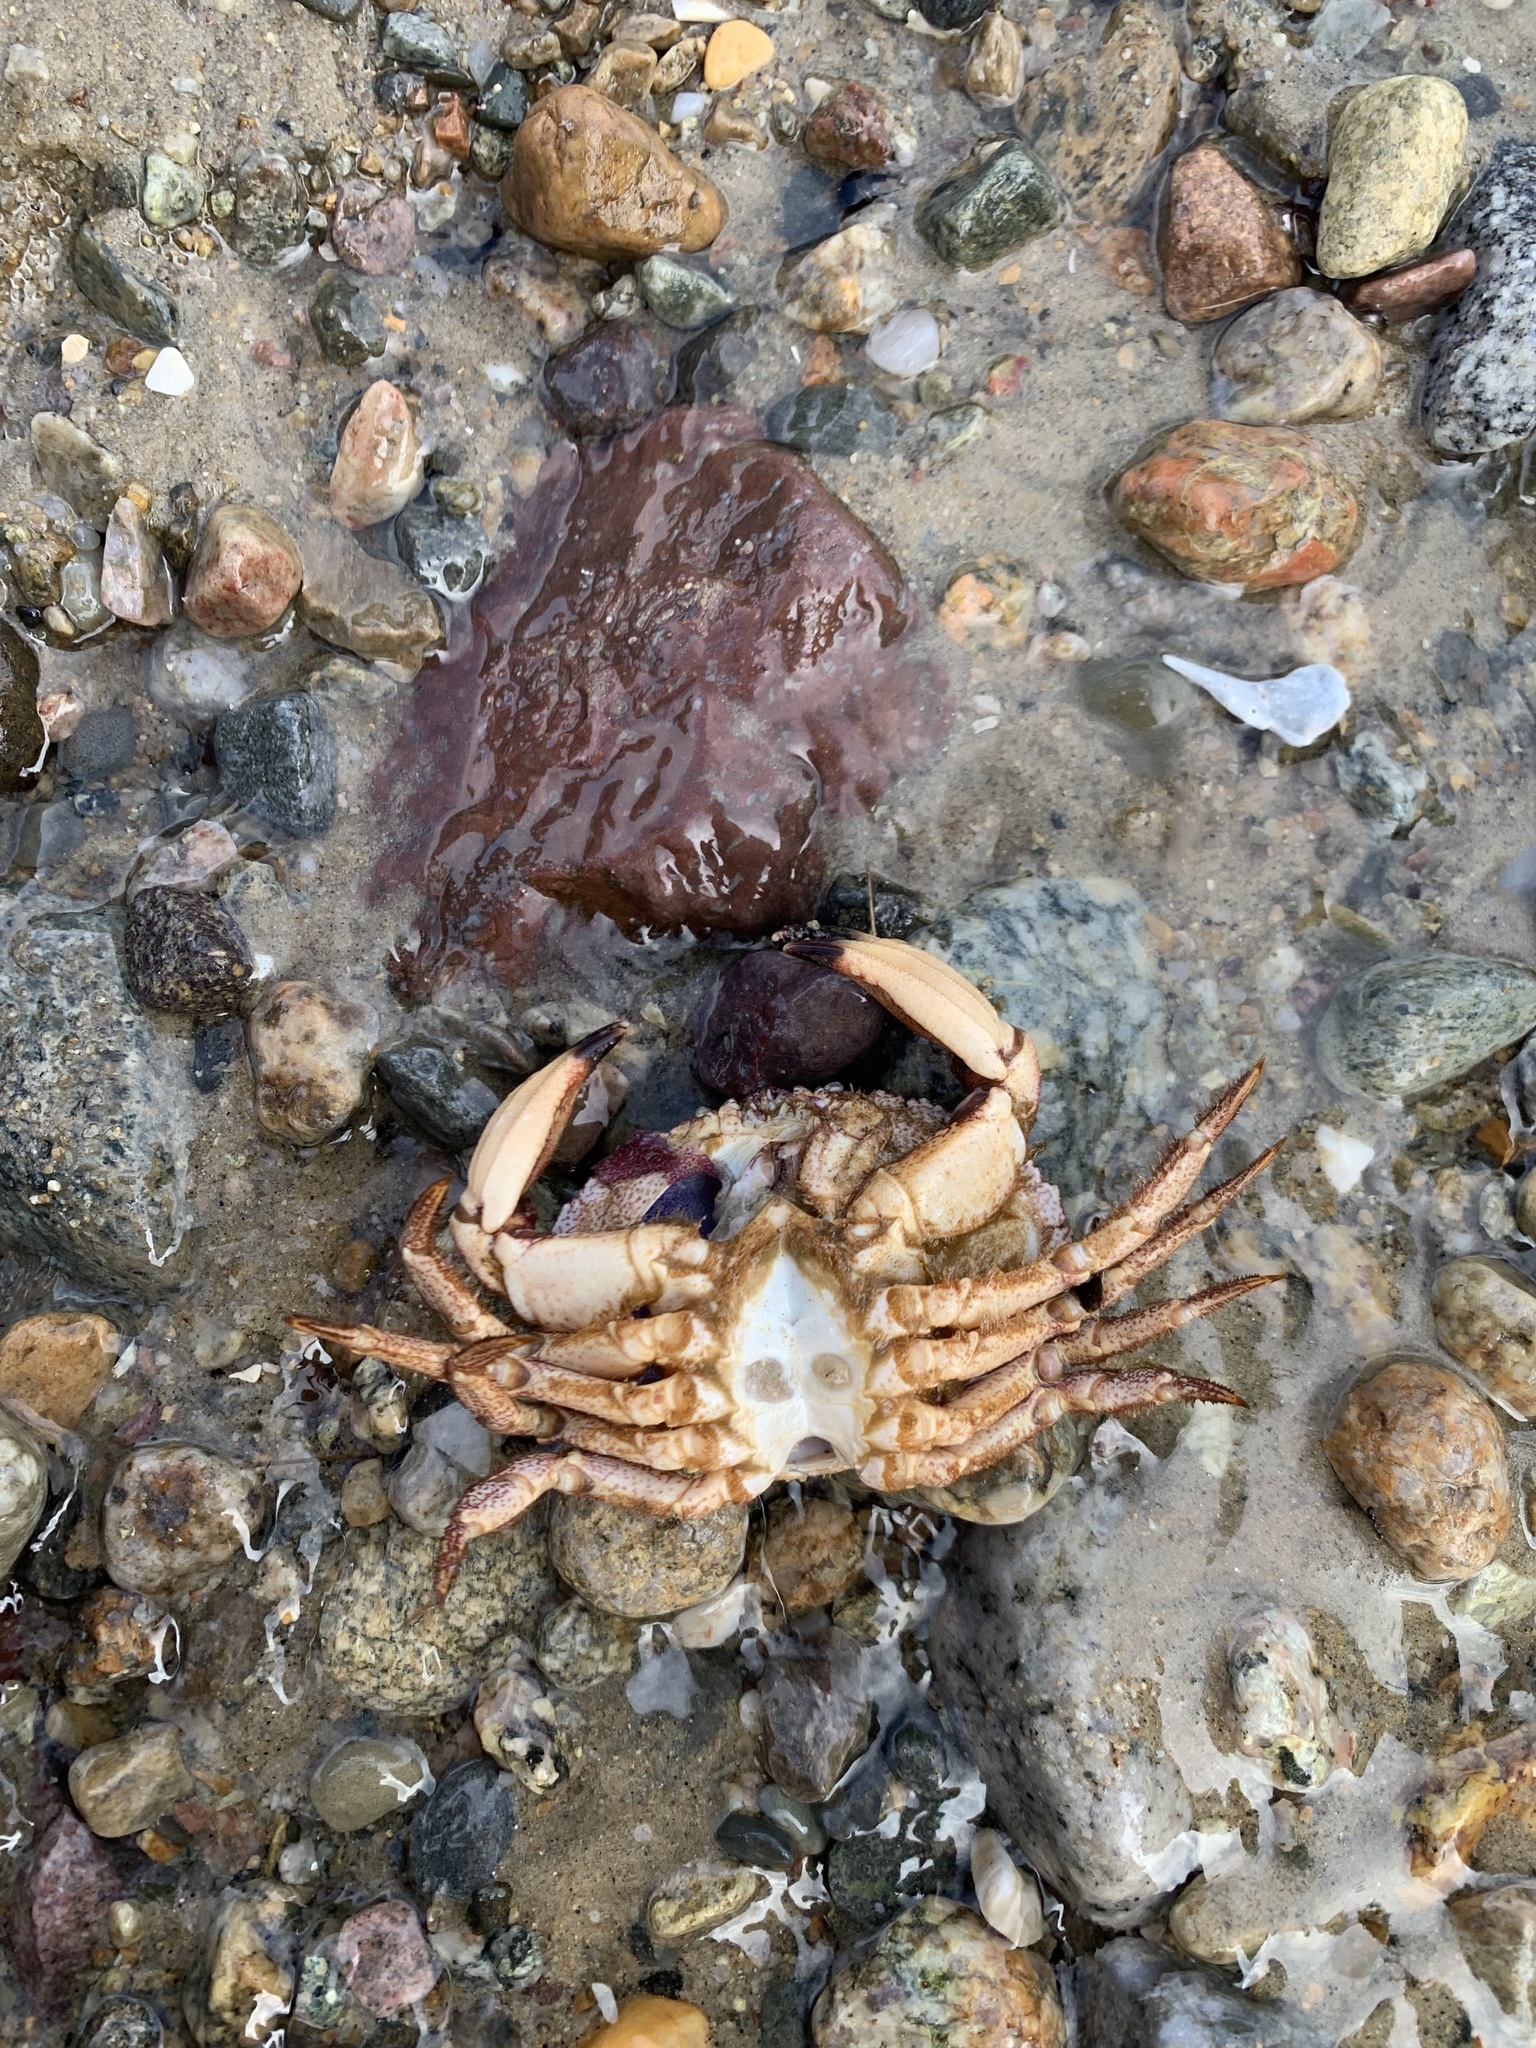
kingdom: Animalia
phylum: Arthropoda
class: Malacostraca
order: Decapoda
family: Cancridae
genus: Cancer
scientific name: Cancer borealis
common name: Jonah crab
